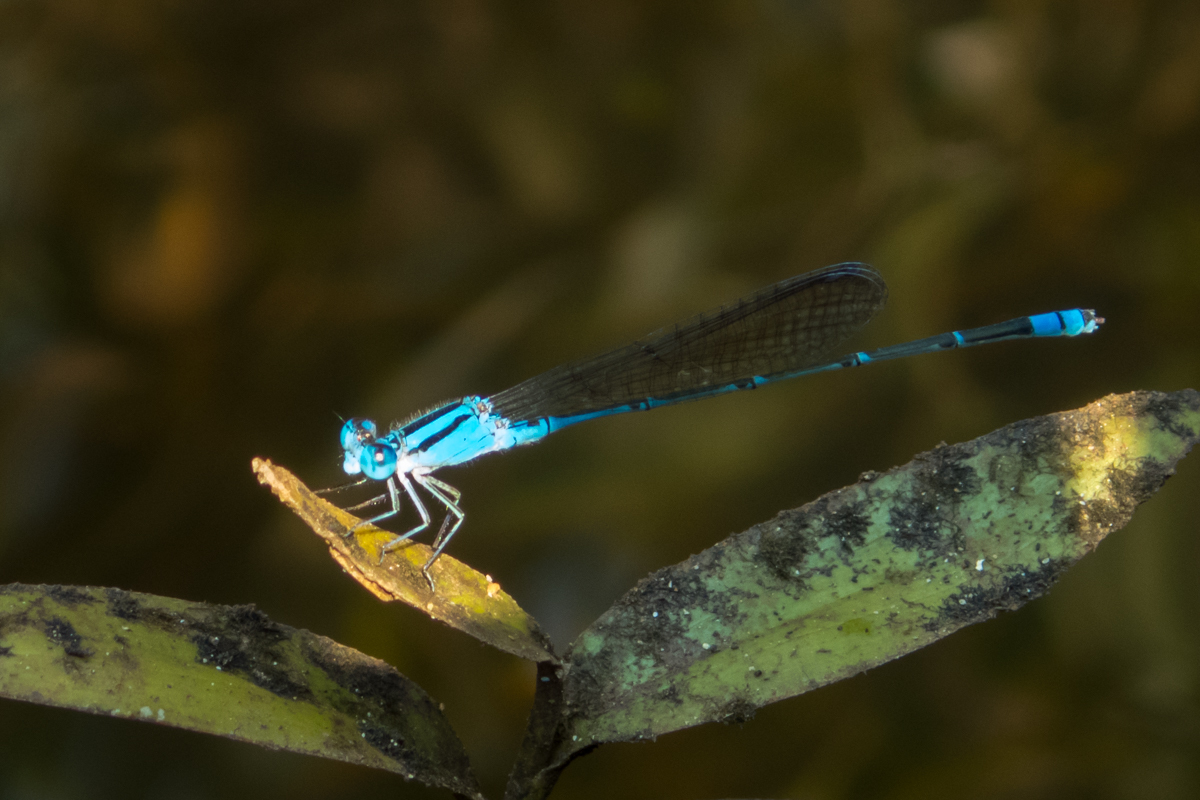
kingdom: Animalia
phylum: Arthropoda
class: Insecta
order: Odonata
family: Coenagrionidae
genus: Pseudagrion
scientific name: Pseudagrion microcephalum
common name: Blue riverdamsel
